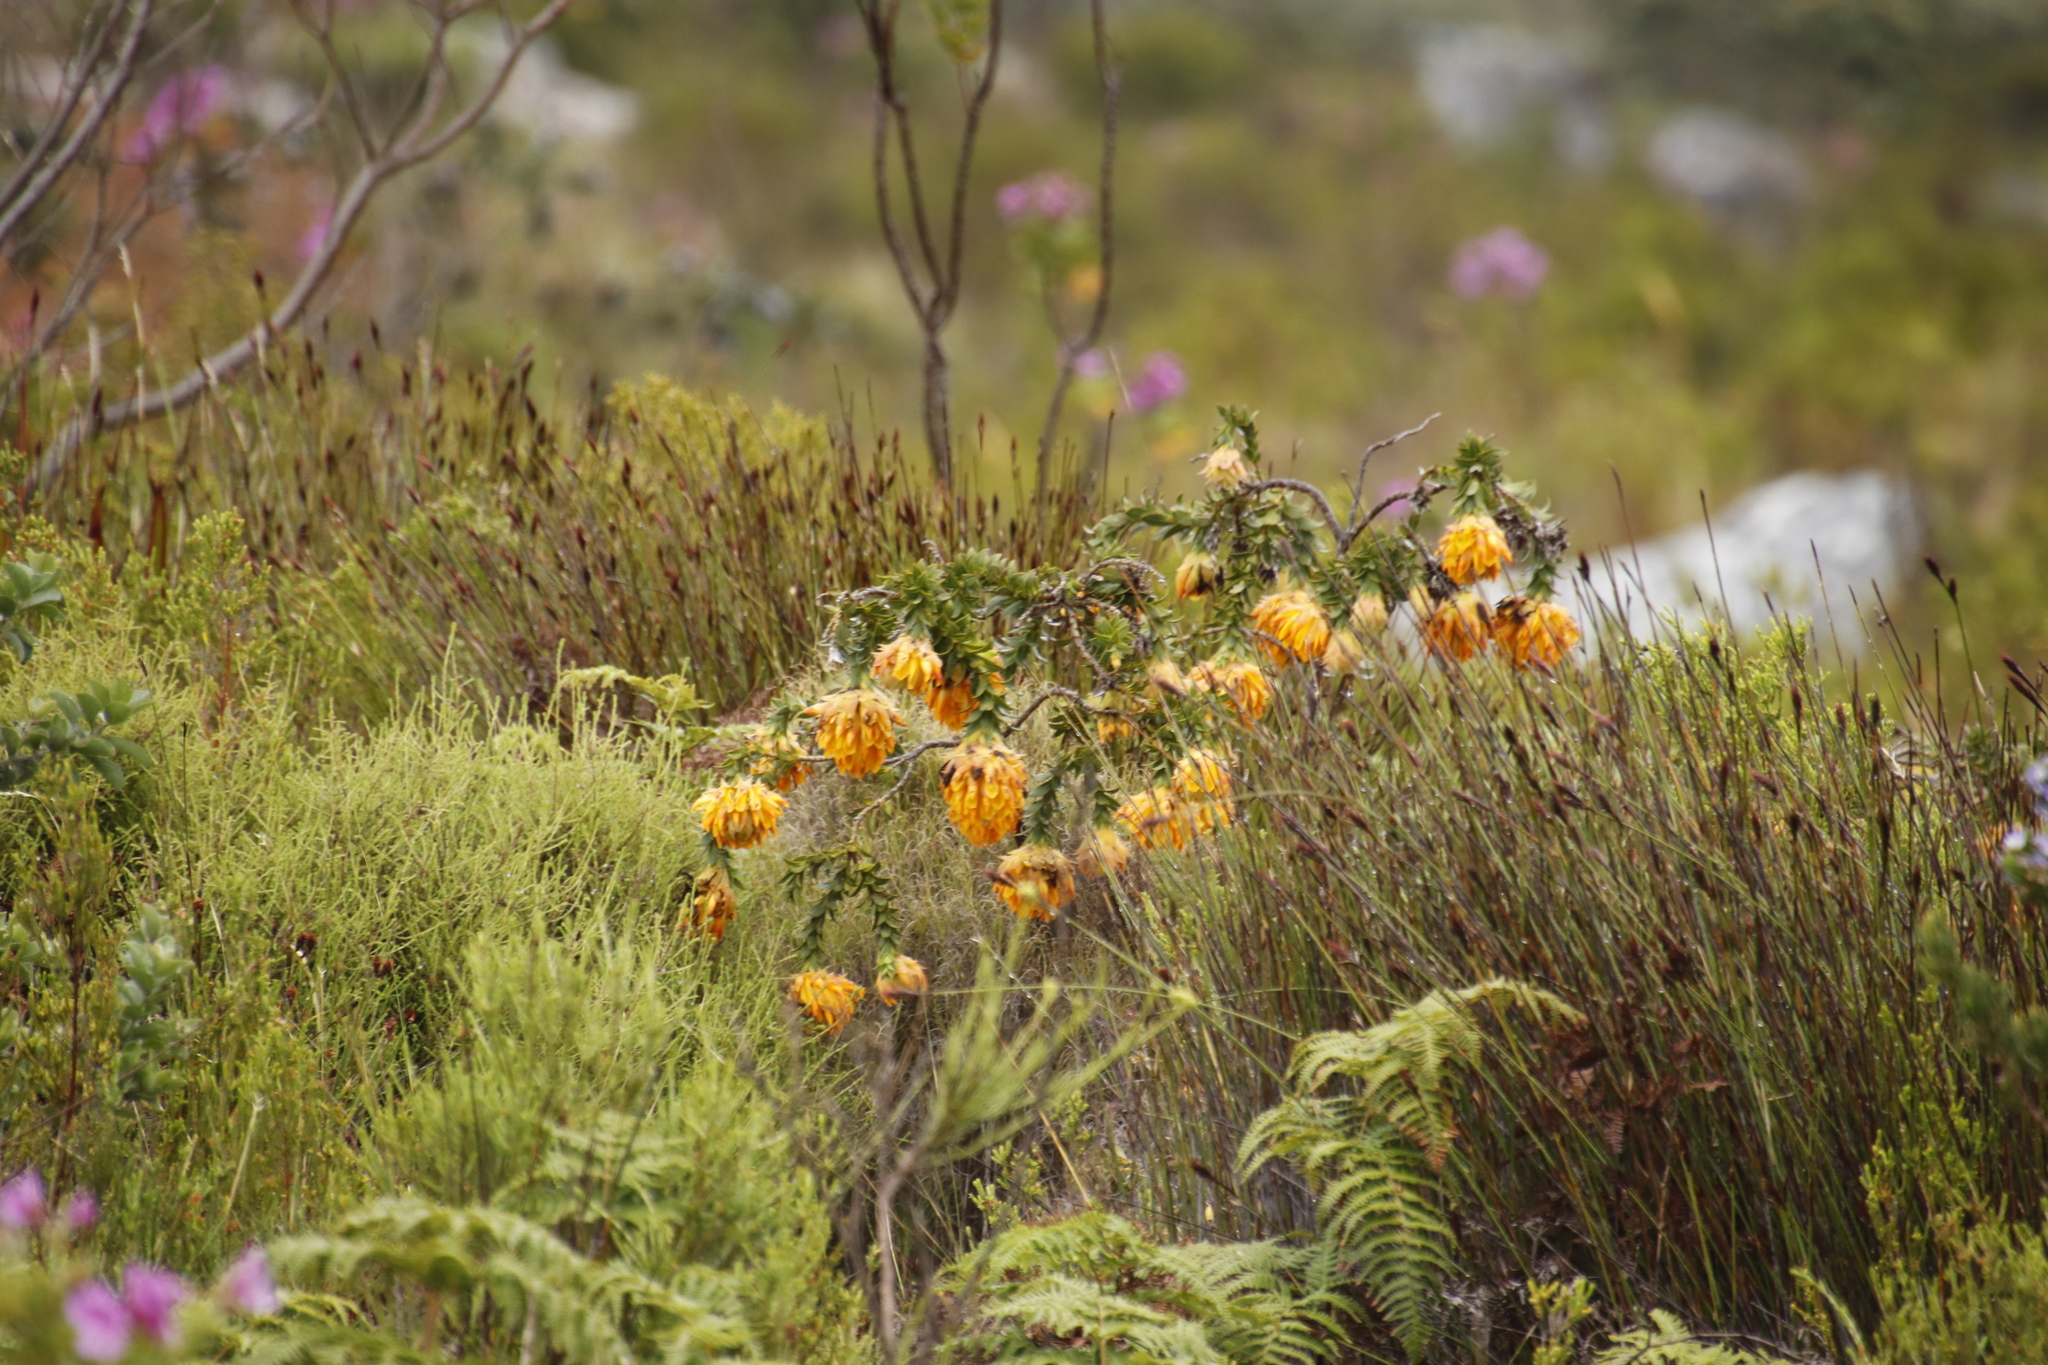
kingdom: Plantae
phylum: Tracheophyta
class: Magnoliopsida
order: Fabales
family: Fabaceae
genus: Liparia
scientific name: Liparia splendens
